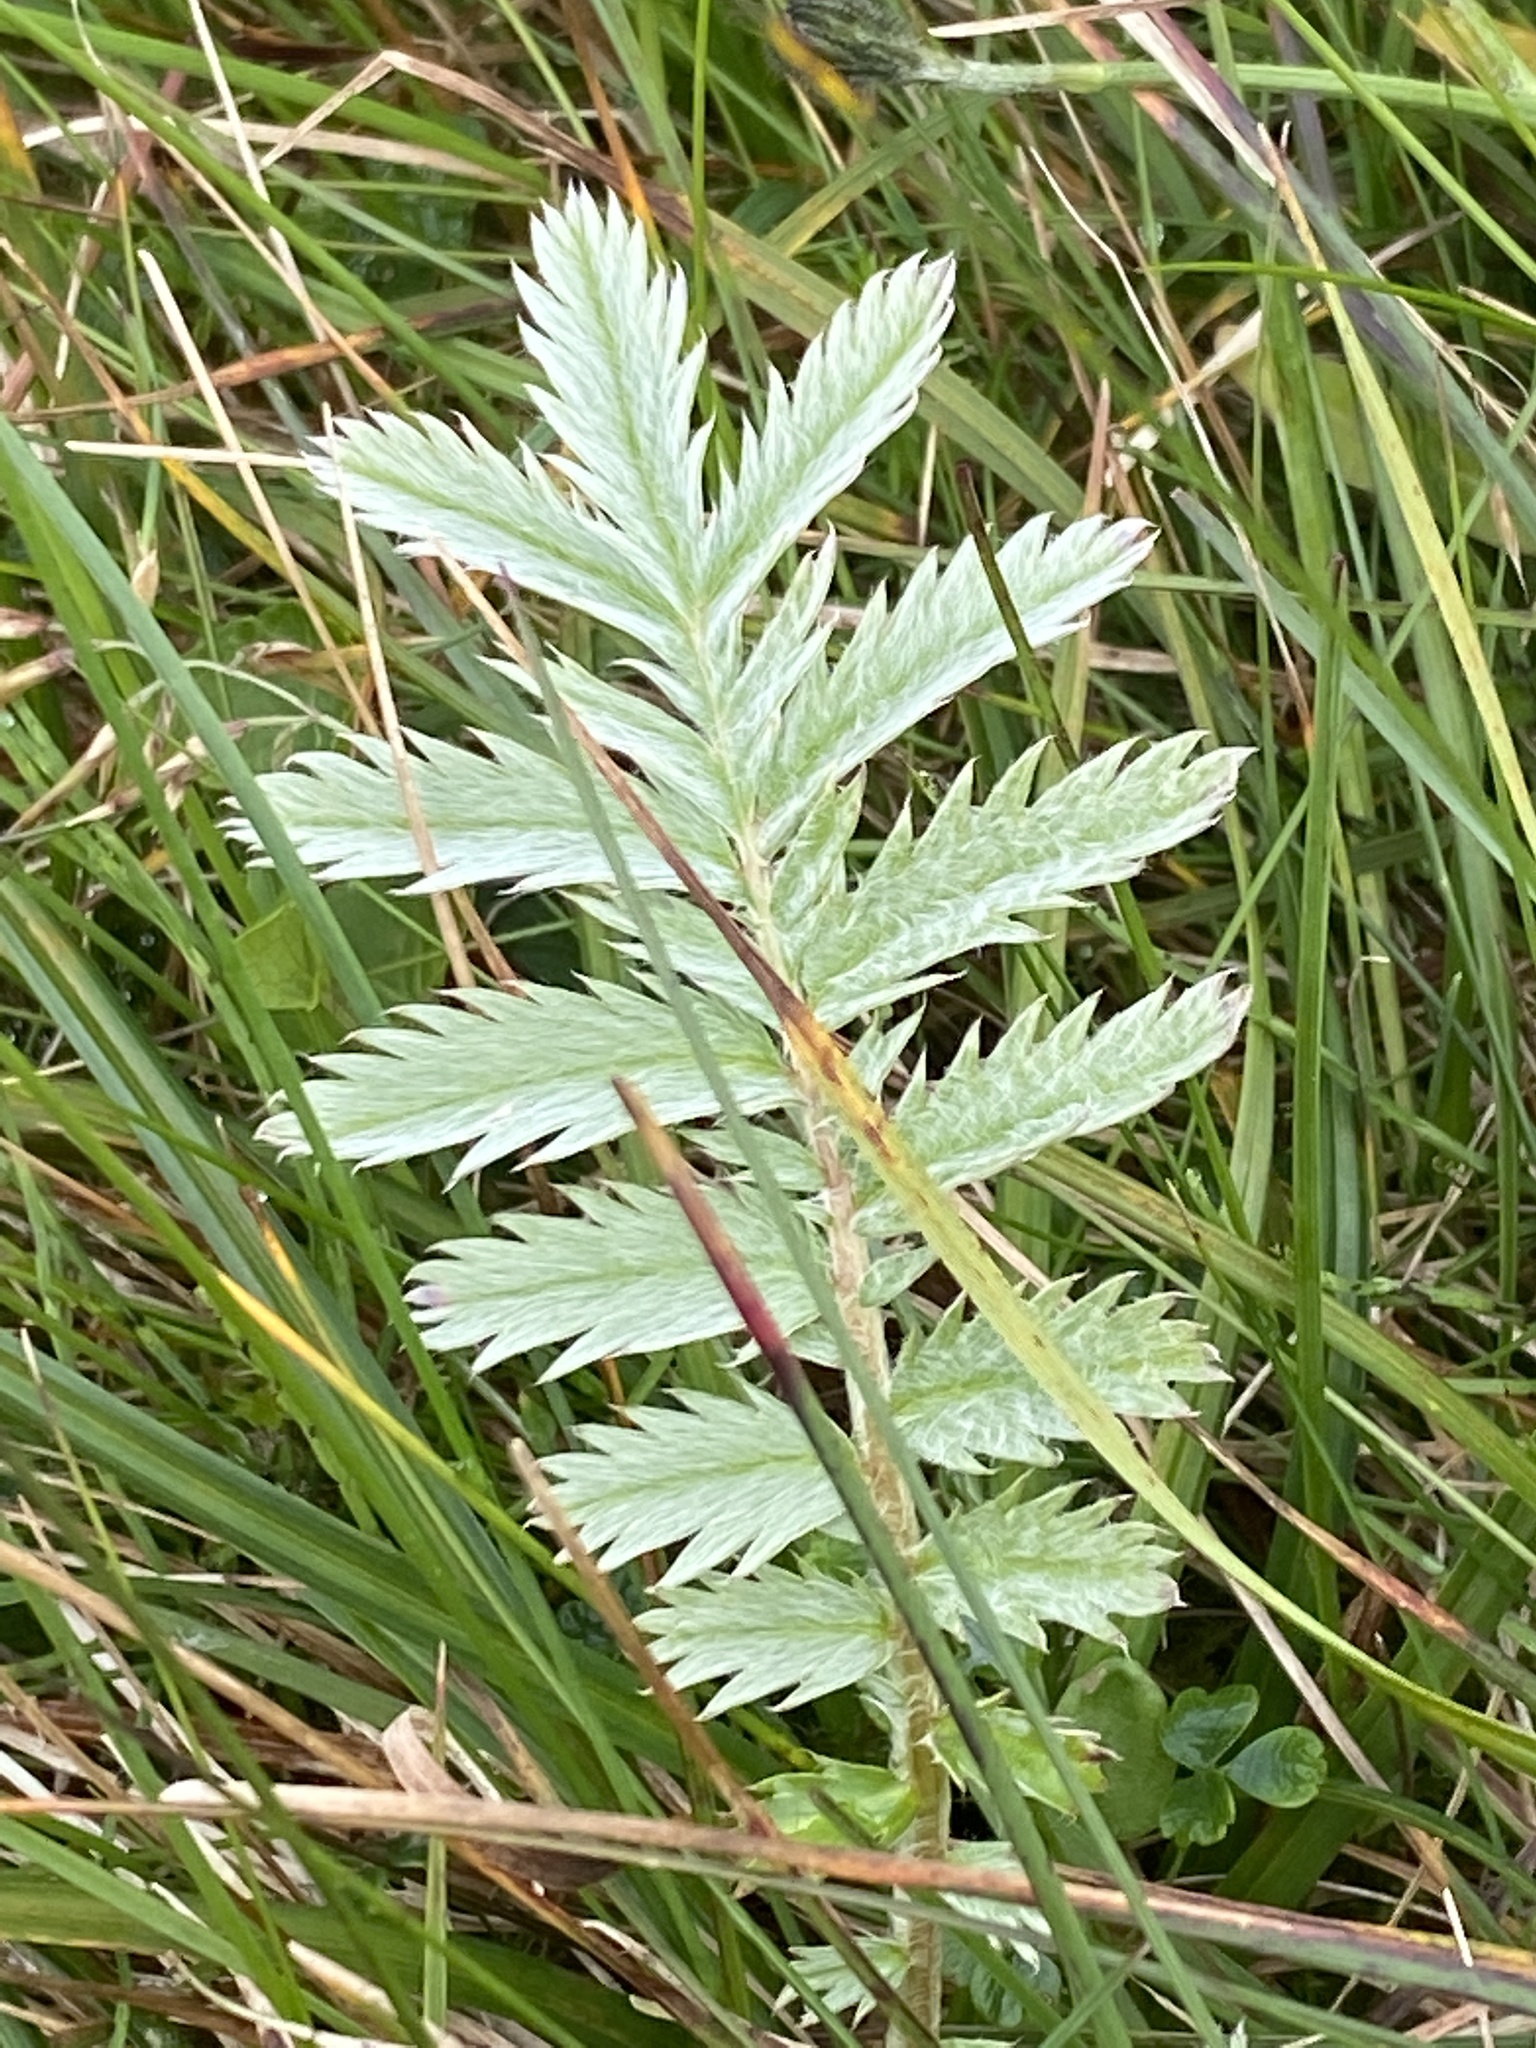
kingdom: Plantae
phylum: Tracheophyta
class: Magnoliopsida
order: Rosales
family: Rosaceae
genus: Argentina
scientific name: Argentina anserina
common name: Common silverweed
